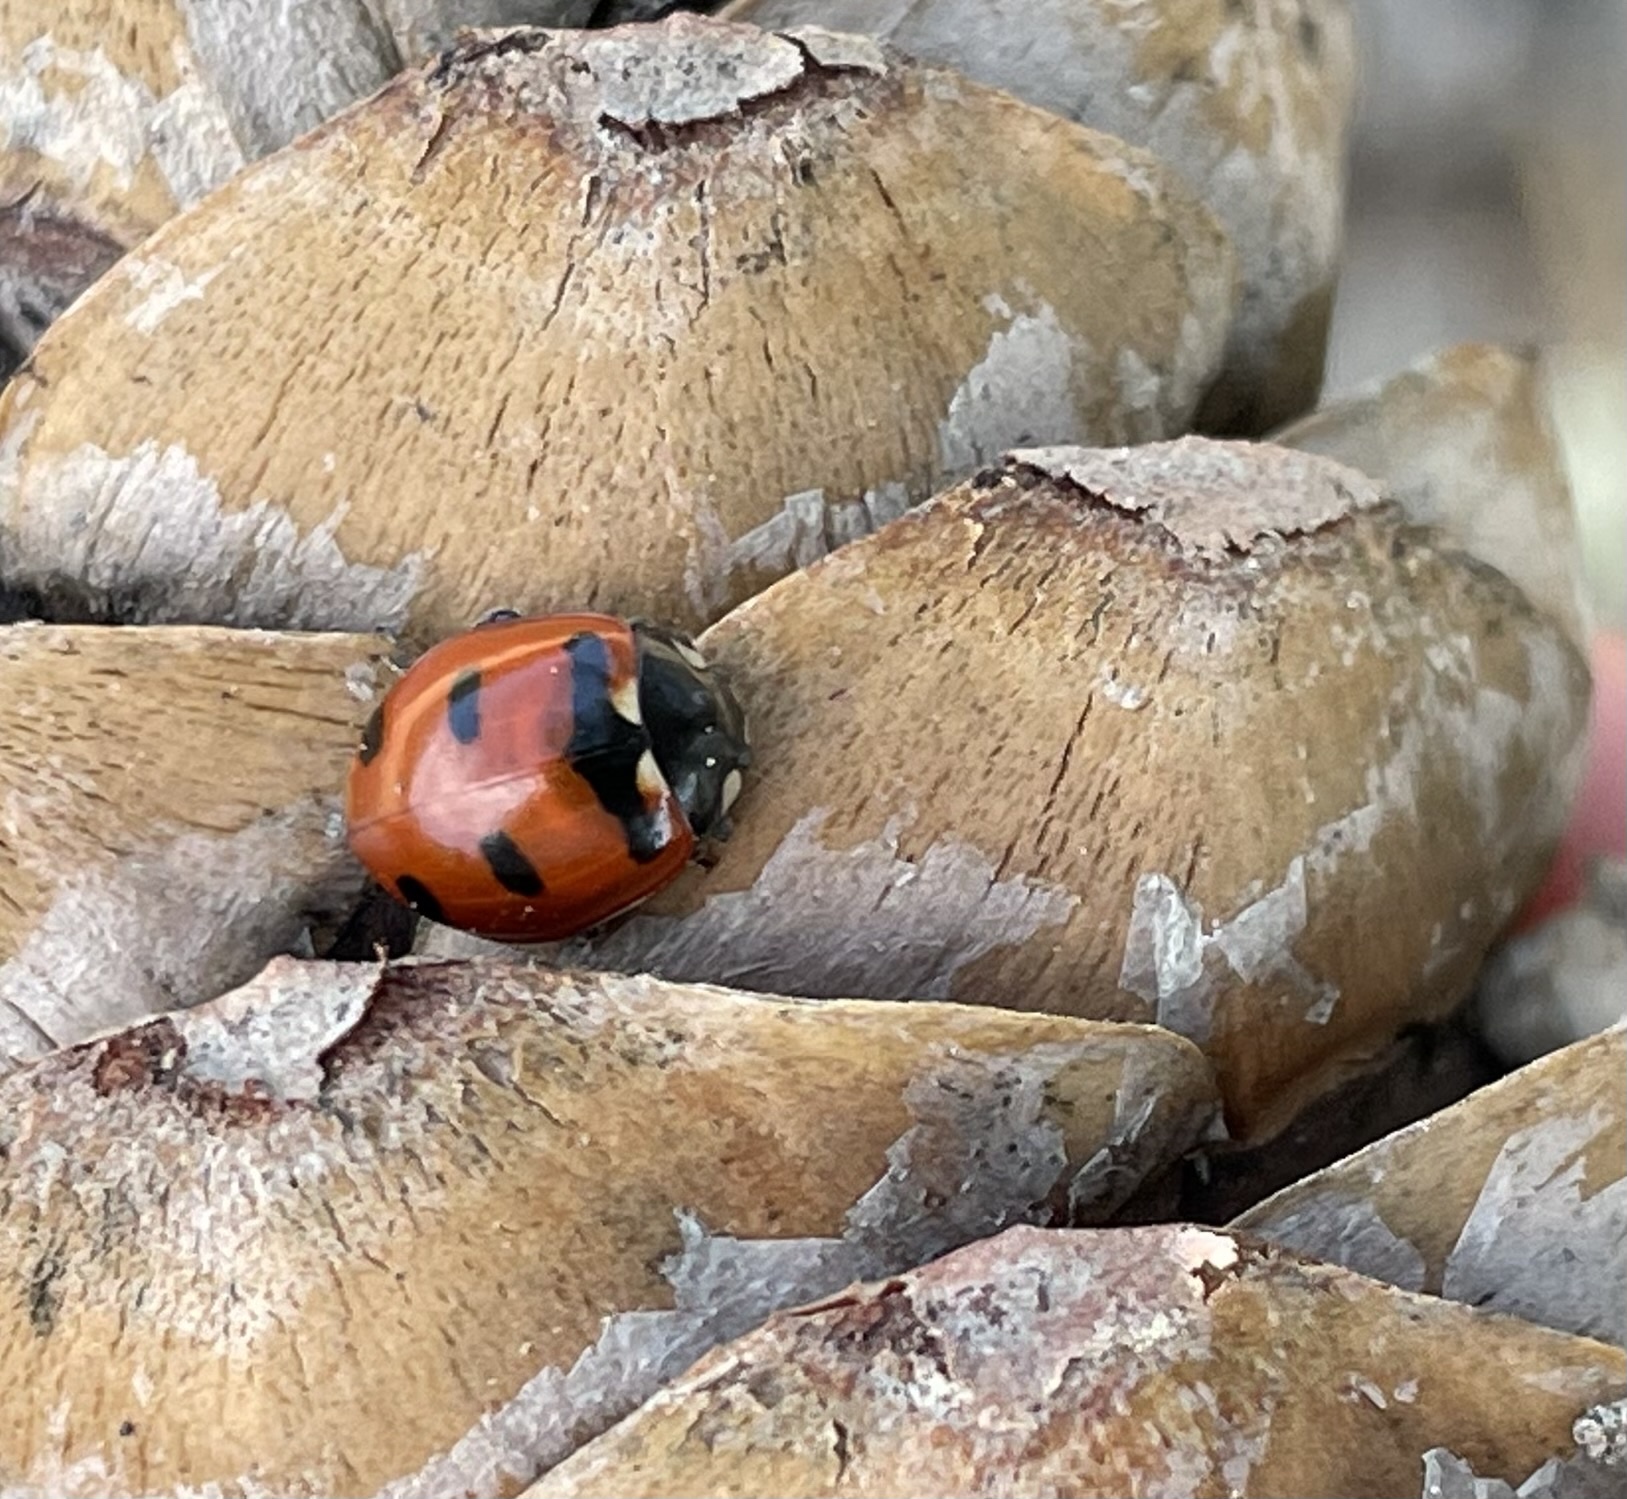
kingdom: Animalia
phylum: Arthropoda
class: Insecta
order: Coleoptera
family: Coccinellidae
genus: Coccinella
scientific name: Coccinella transversoguttata
